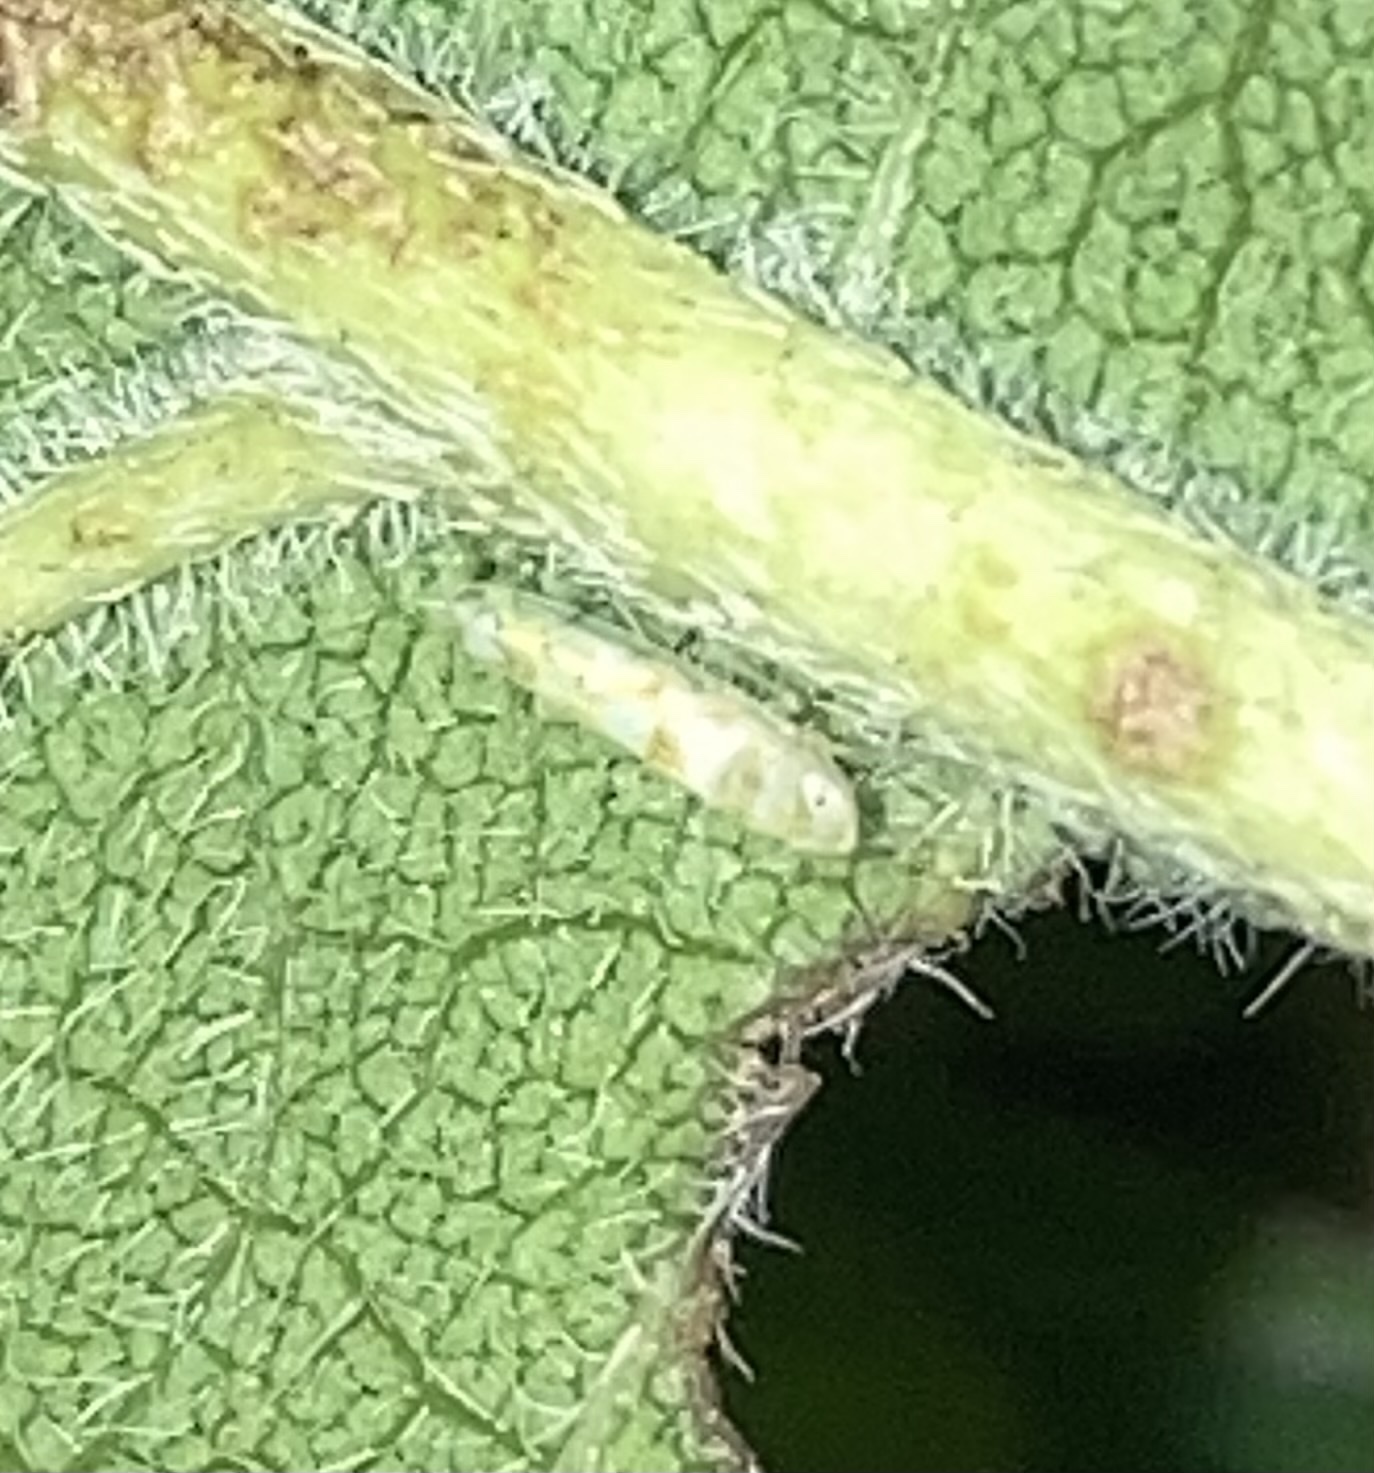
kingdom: Animalia
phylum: Arthropoda
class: Insecta
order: Hemiptera
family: Cicadellidae
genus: Protalebra
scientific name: Protalebra nexa
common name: Leafhopper
